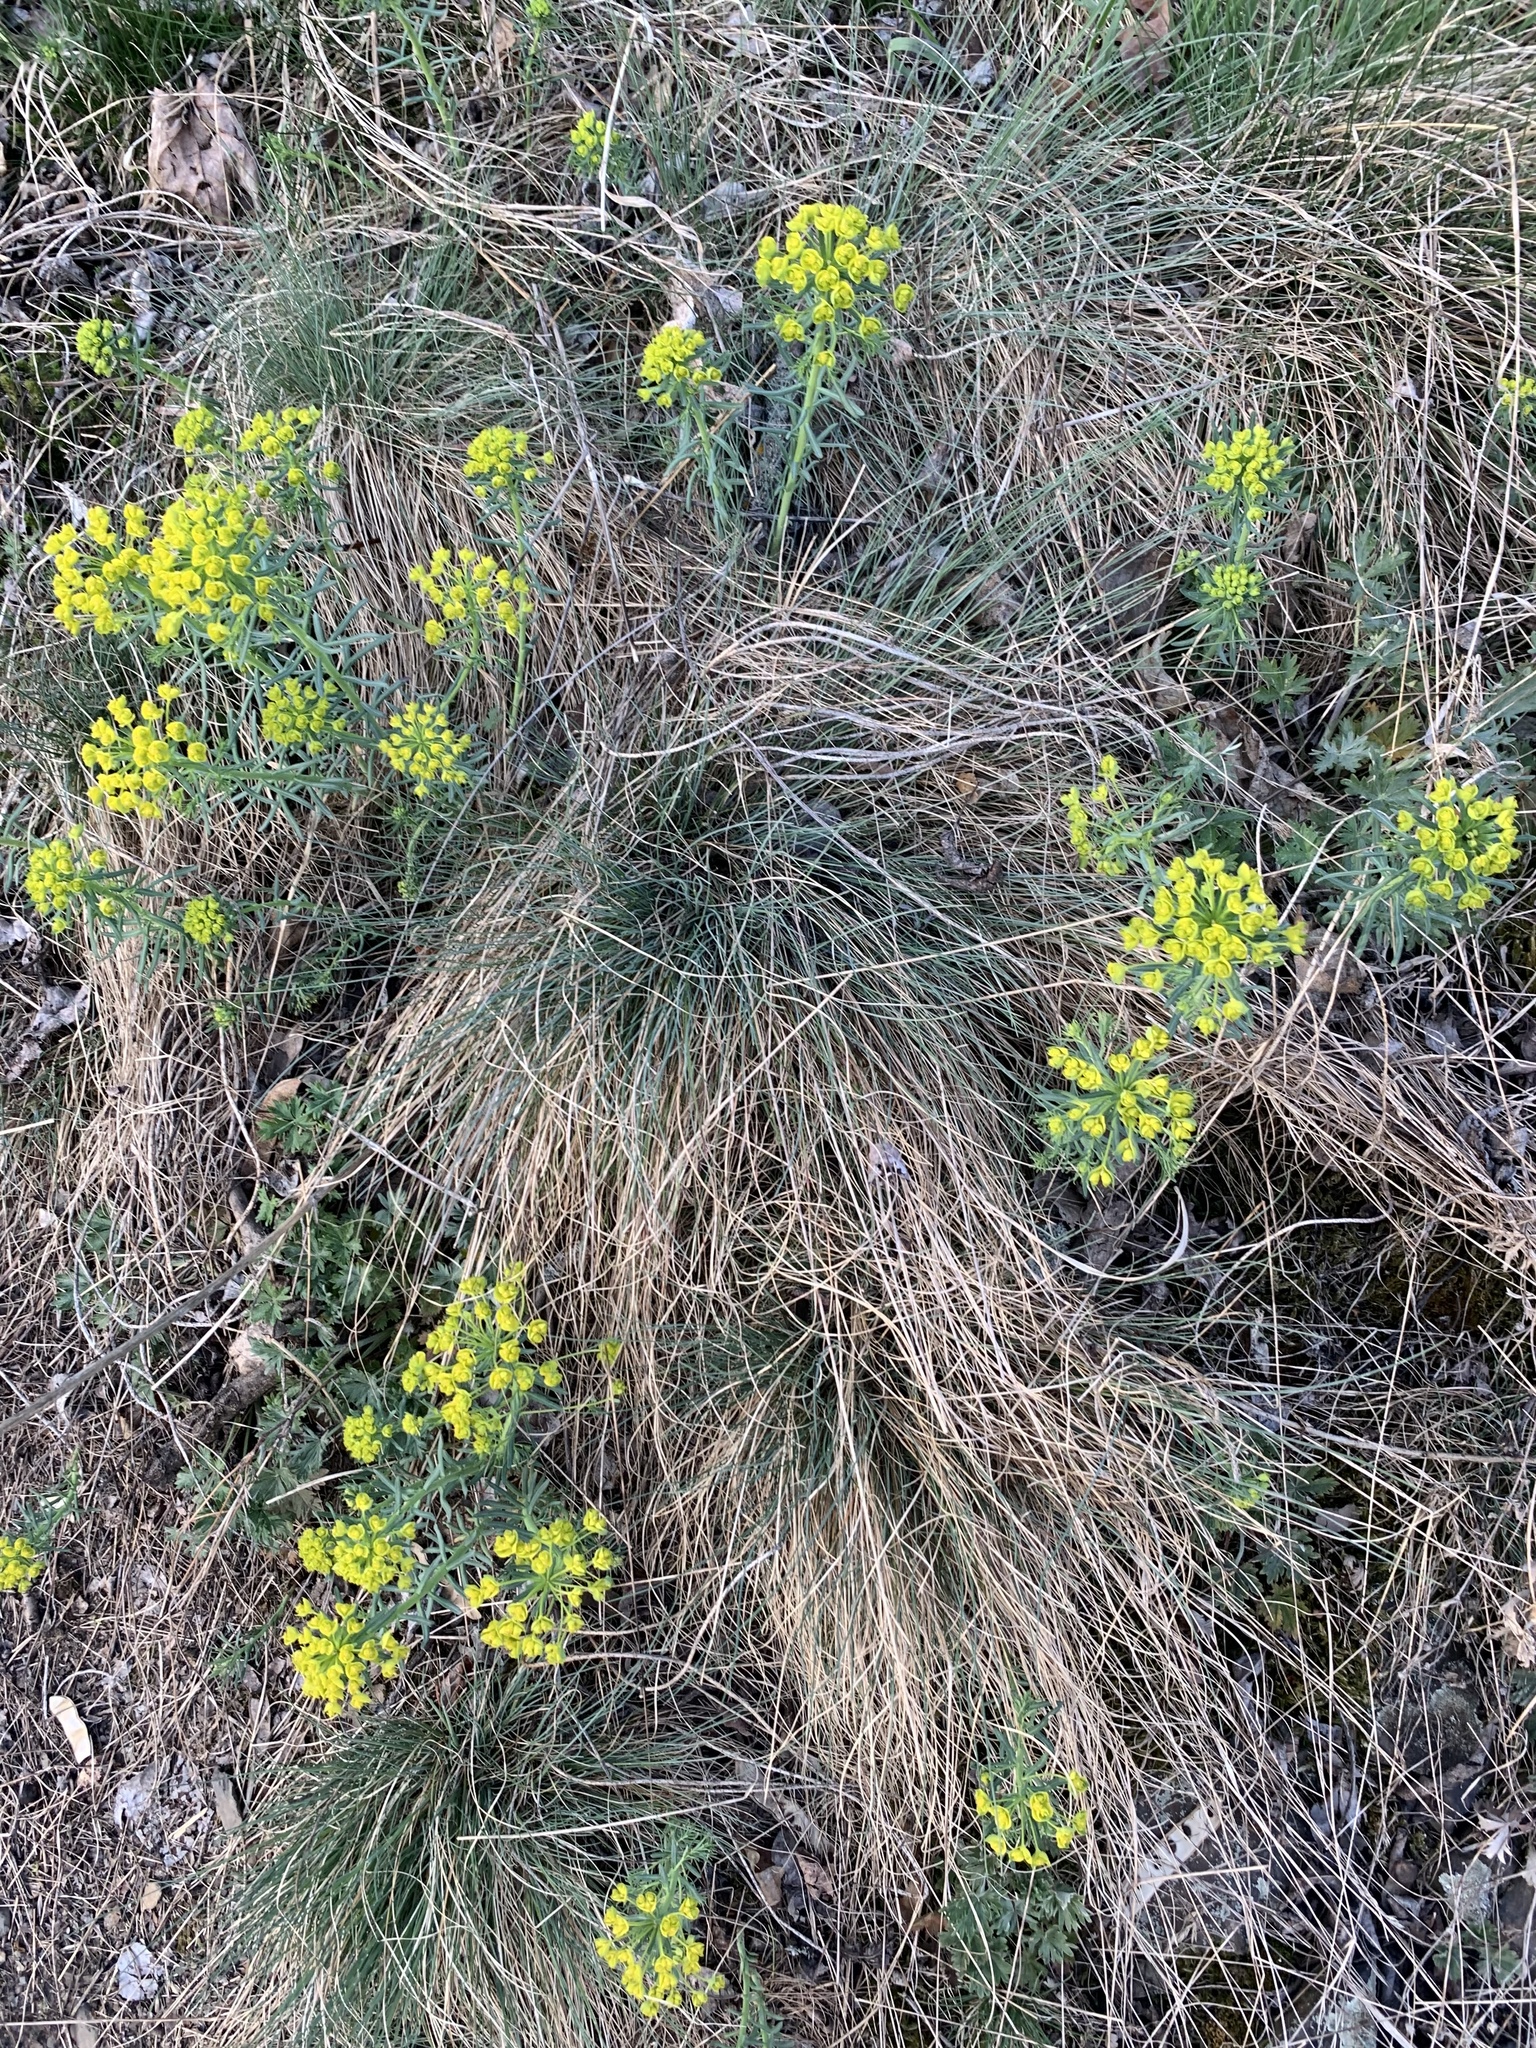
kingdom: Plantae
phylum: Tracheophyta
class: Magnoliopsida
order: Malpighiales
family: Euphorbiaceae
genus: Euphorbia
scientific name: Euphorbia cyparissias
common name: Cypress spurge
